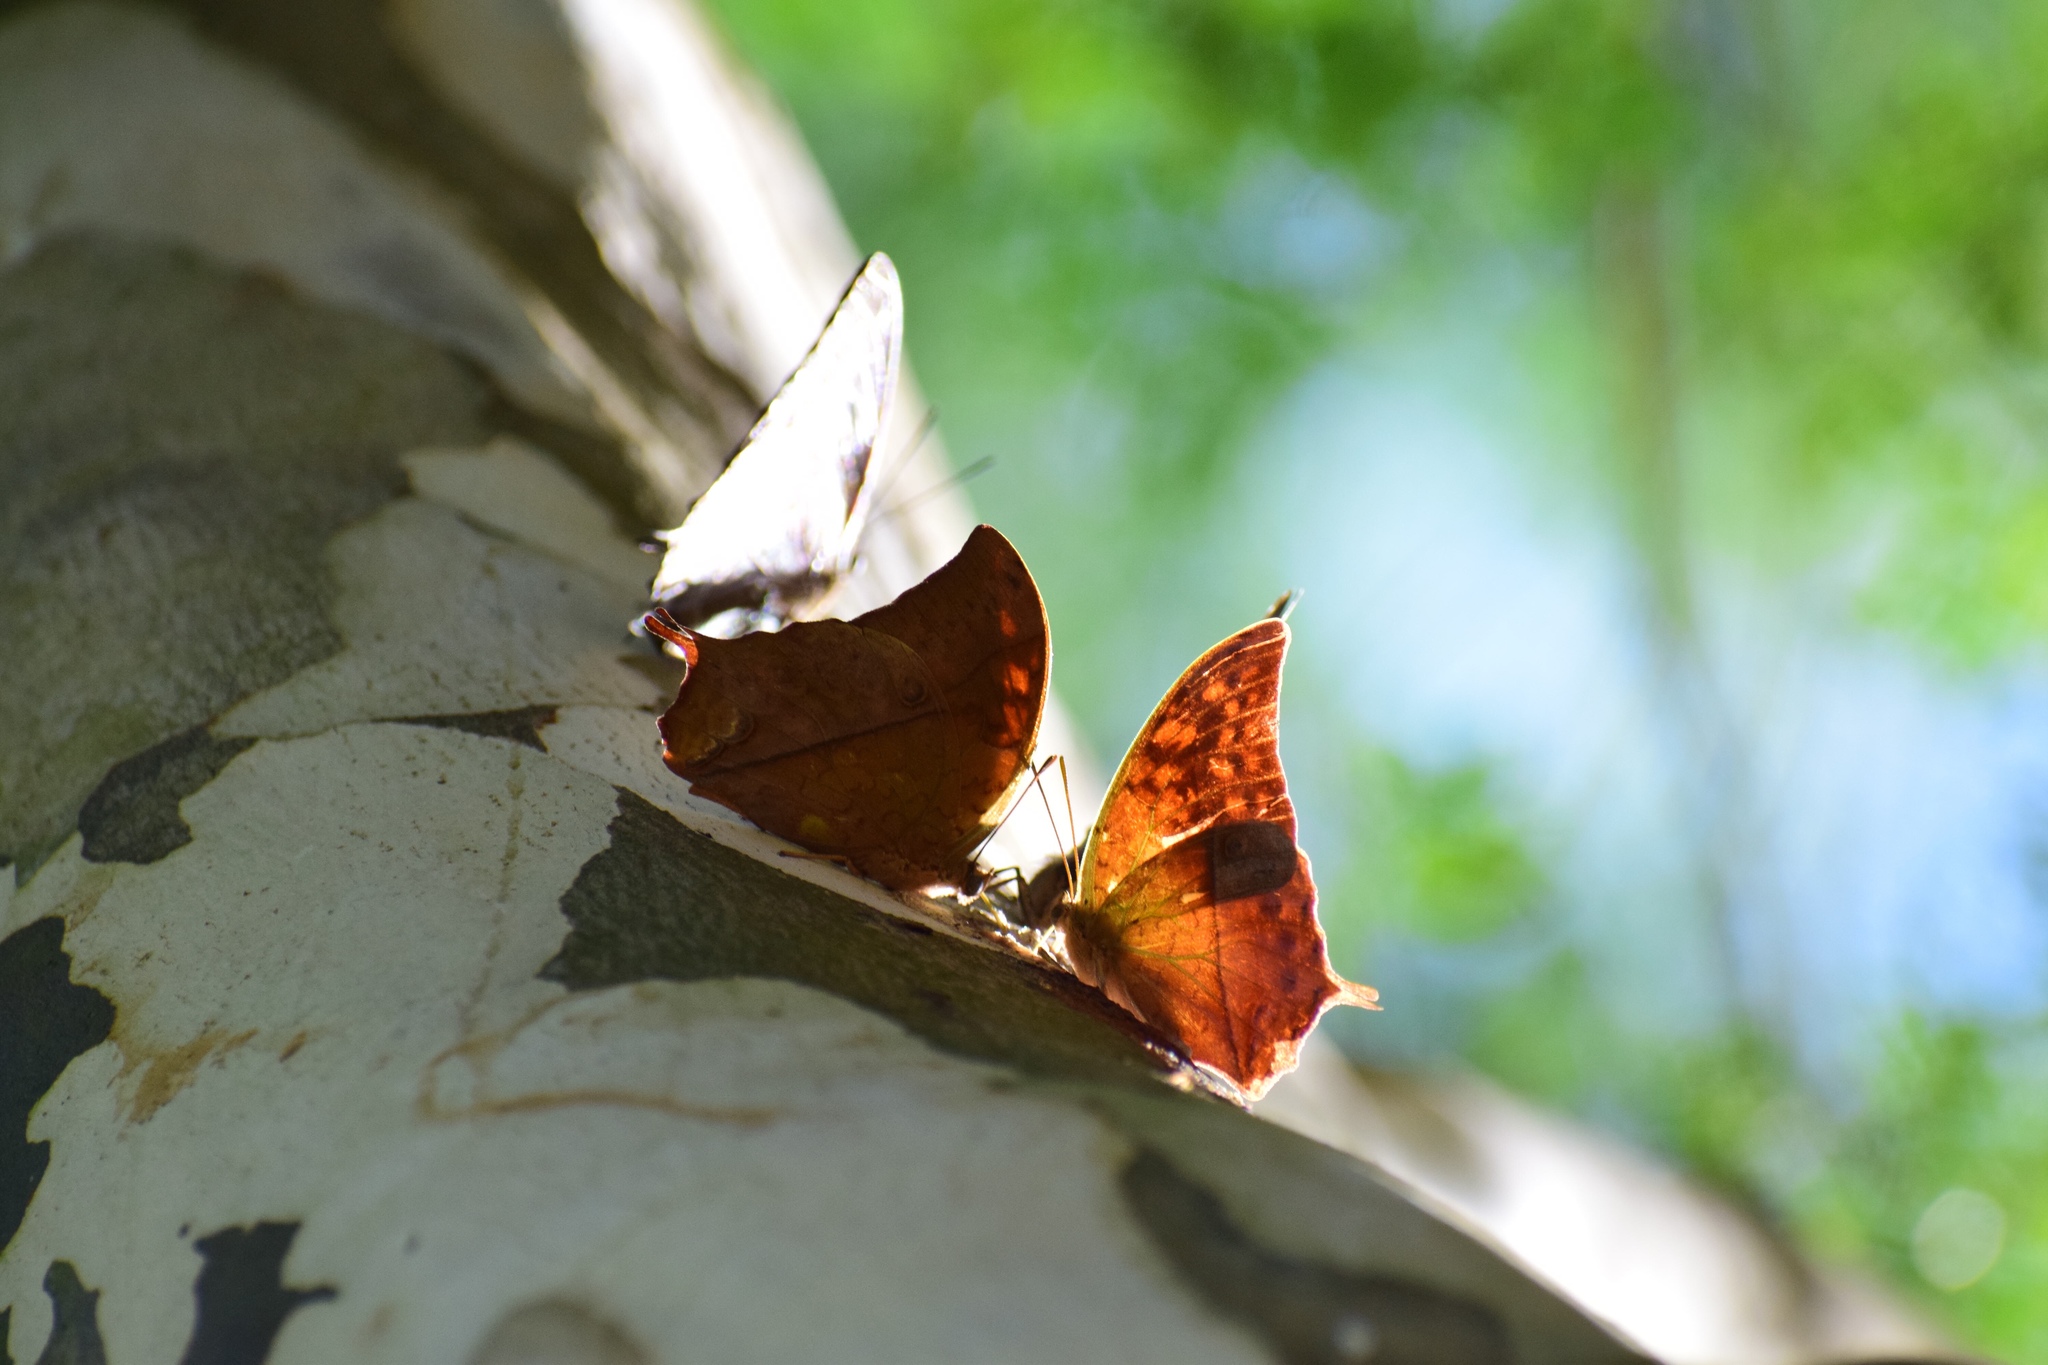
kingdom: Animalia
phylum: Arthropoda
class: Insecta
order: Lepidoptera
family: Nymphalidae
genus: Charaxes
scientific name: Charaxes varanes
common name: Common pearl charaxes
